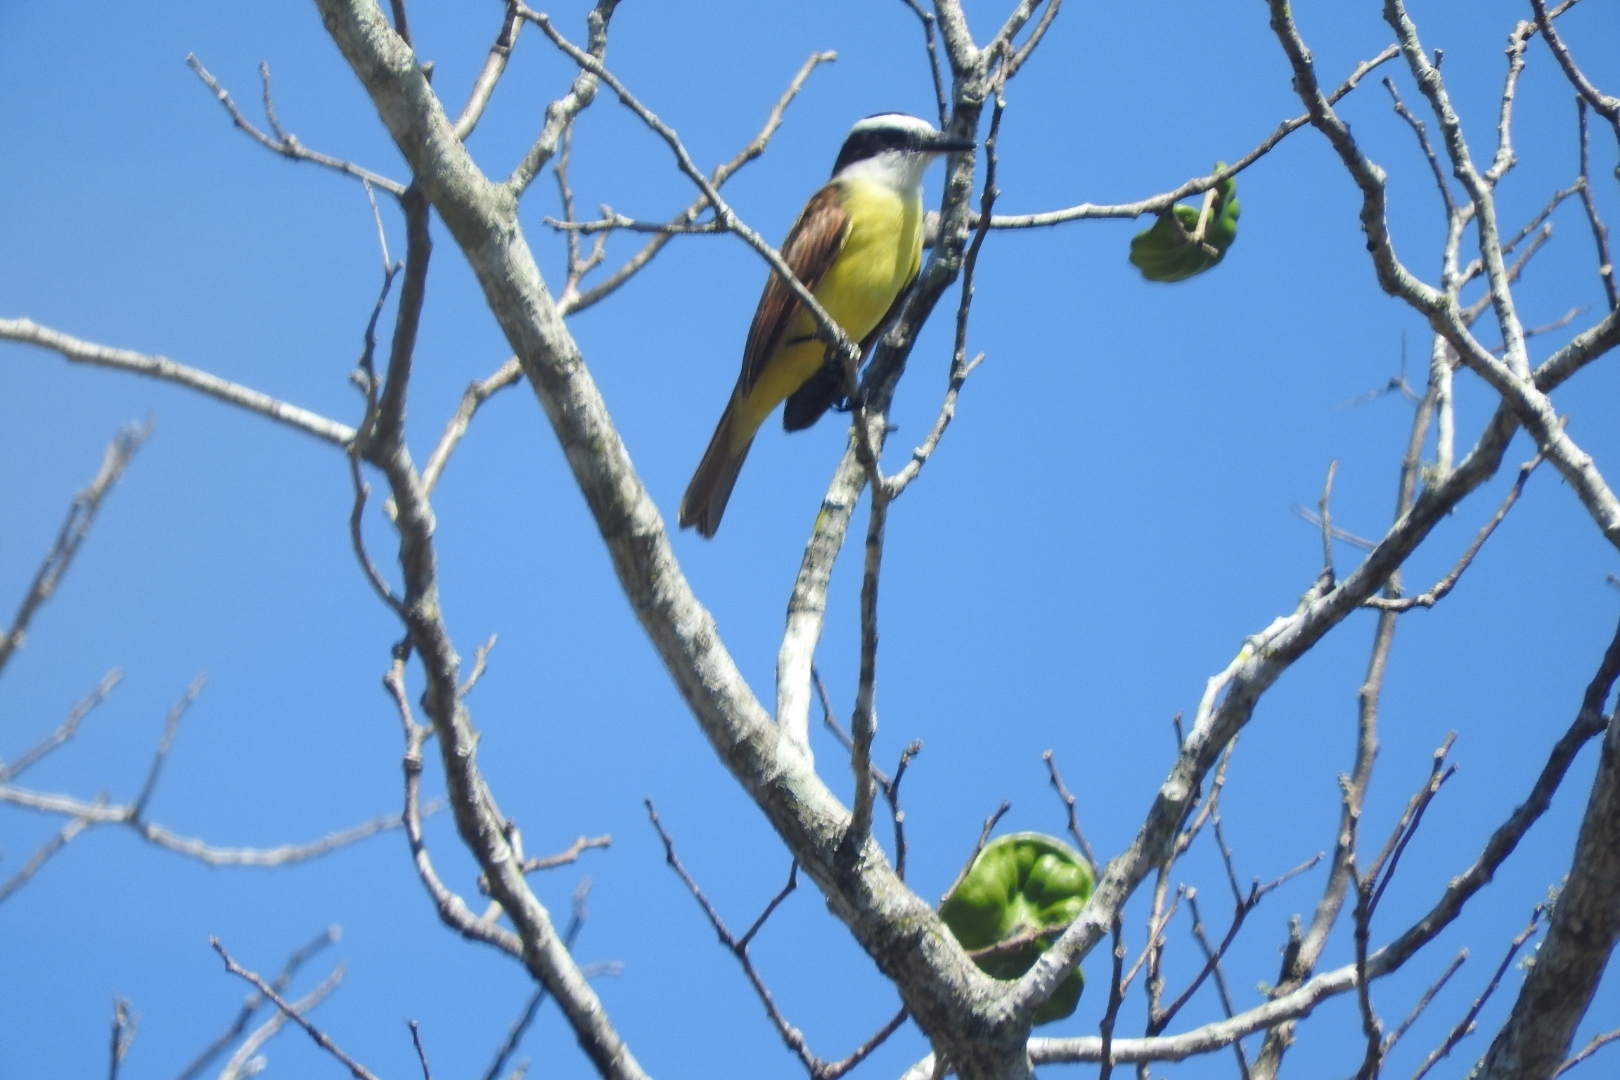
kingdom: Animalia
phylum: Chordata
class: Aves
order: Passeriformes
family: Tyrannidae
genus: Pitangus
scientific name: Pitangus sulphuratus
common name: Great kiskadee
